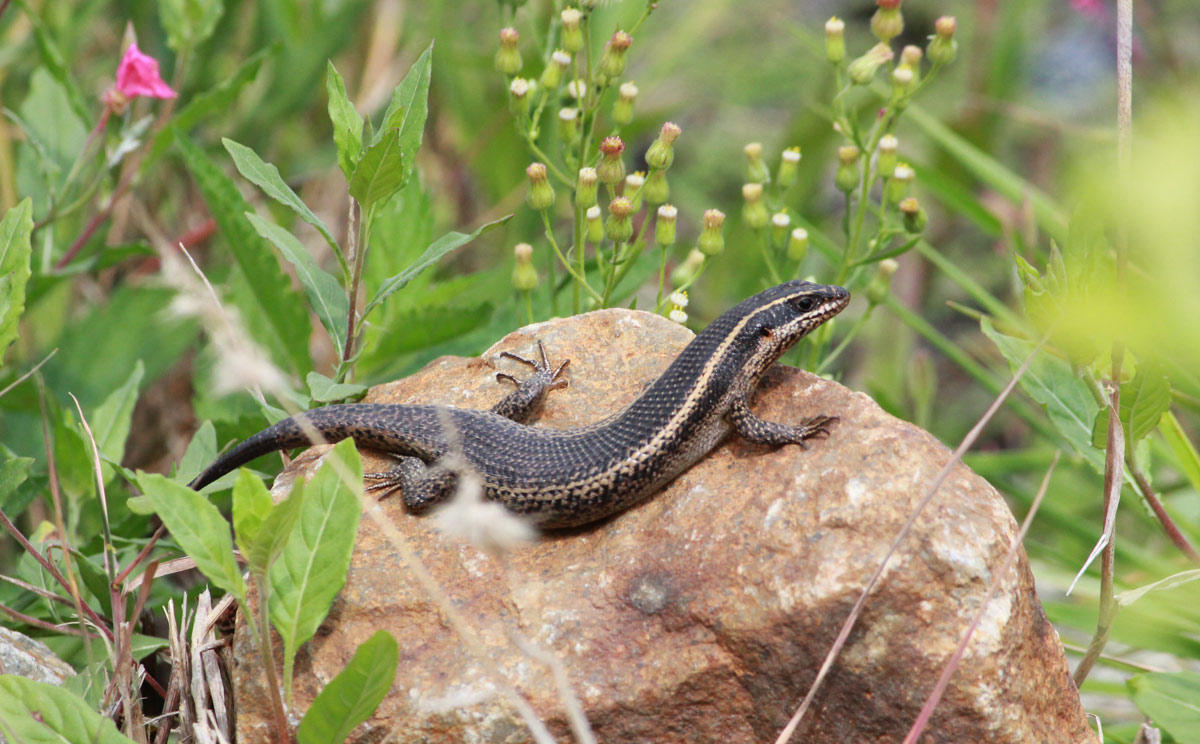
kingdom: Animalia
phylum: Chordata
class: Squamata
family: Scincidae
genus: Trachylepis
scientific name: Trachylepis punctatissima
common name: Montane speckled skink
